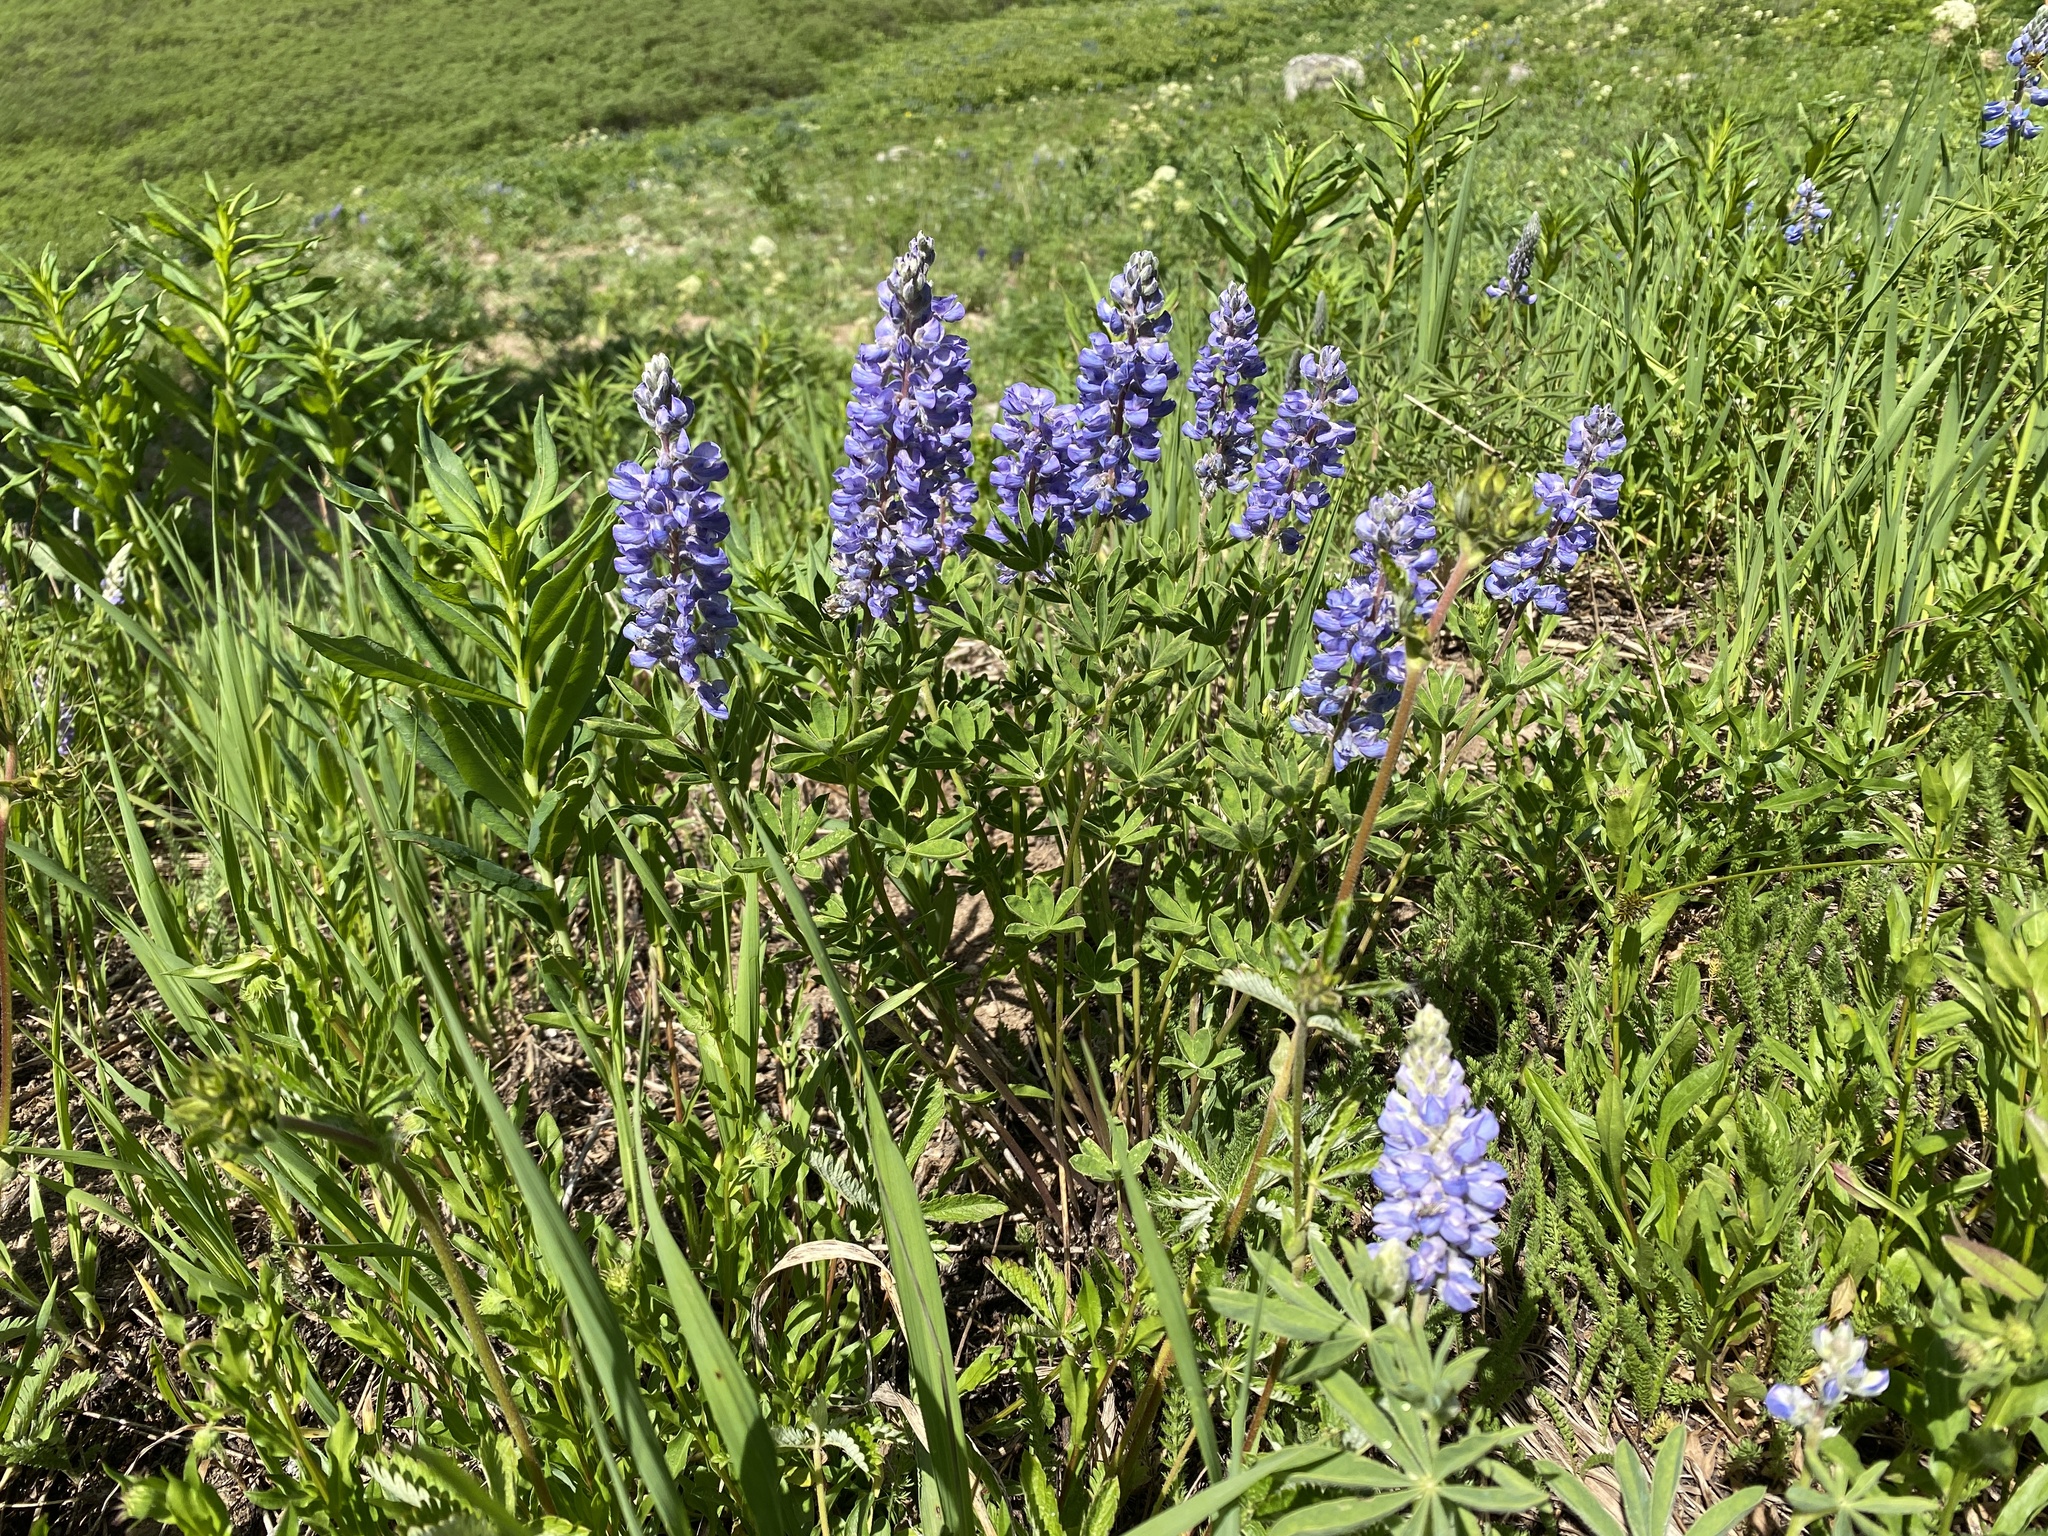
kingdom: Plantae
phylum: Tracheophyta
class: Magnoliopsida
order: Fabales
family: Fabaceae
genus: Lupinus
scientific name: Lupinus argenteus
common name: Silvery lupine
